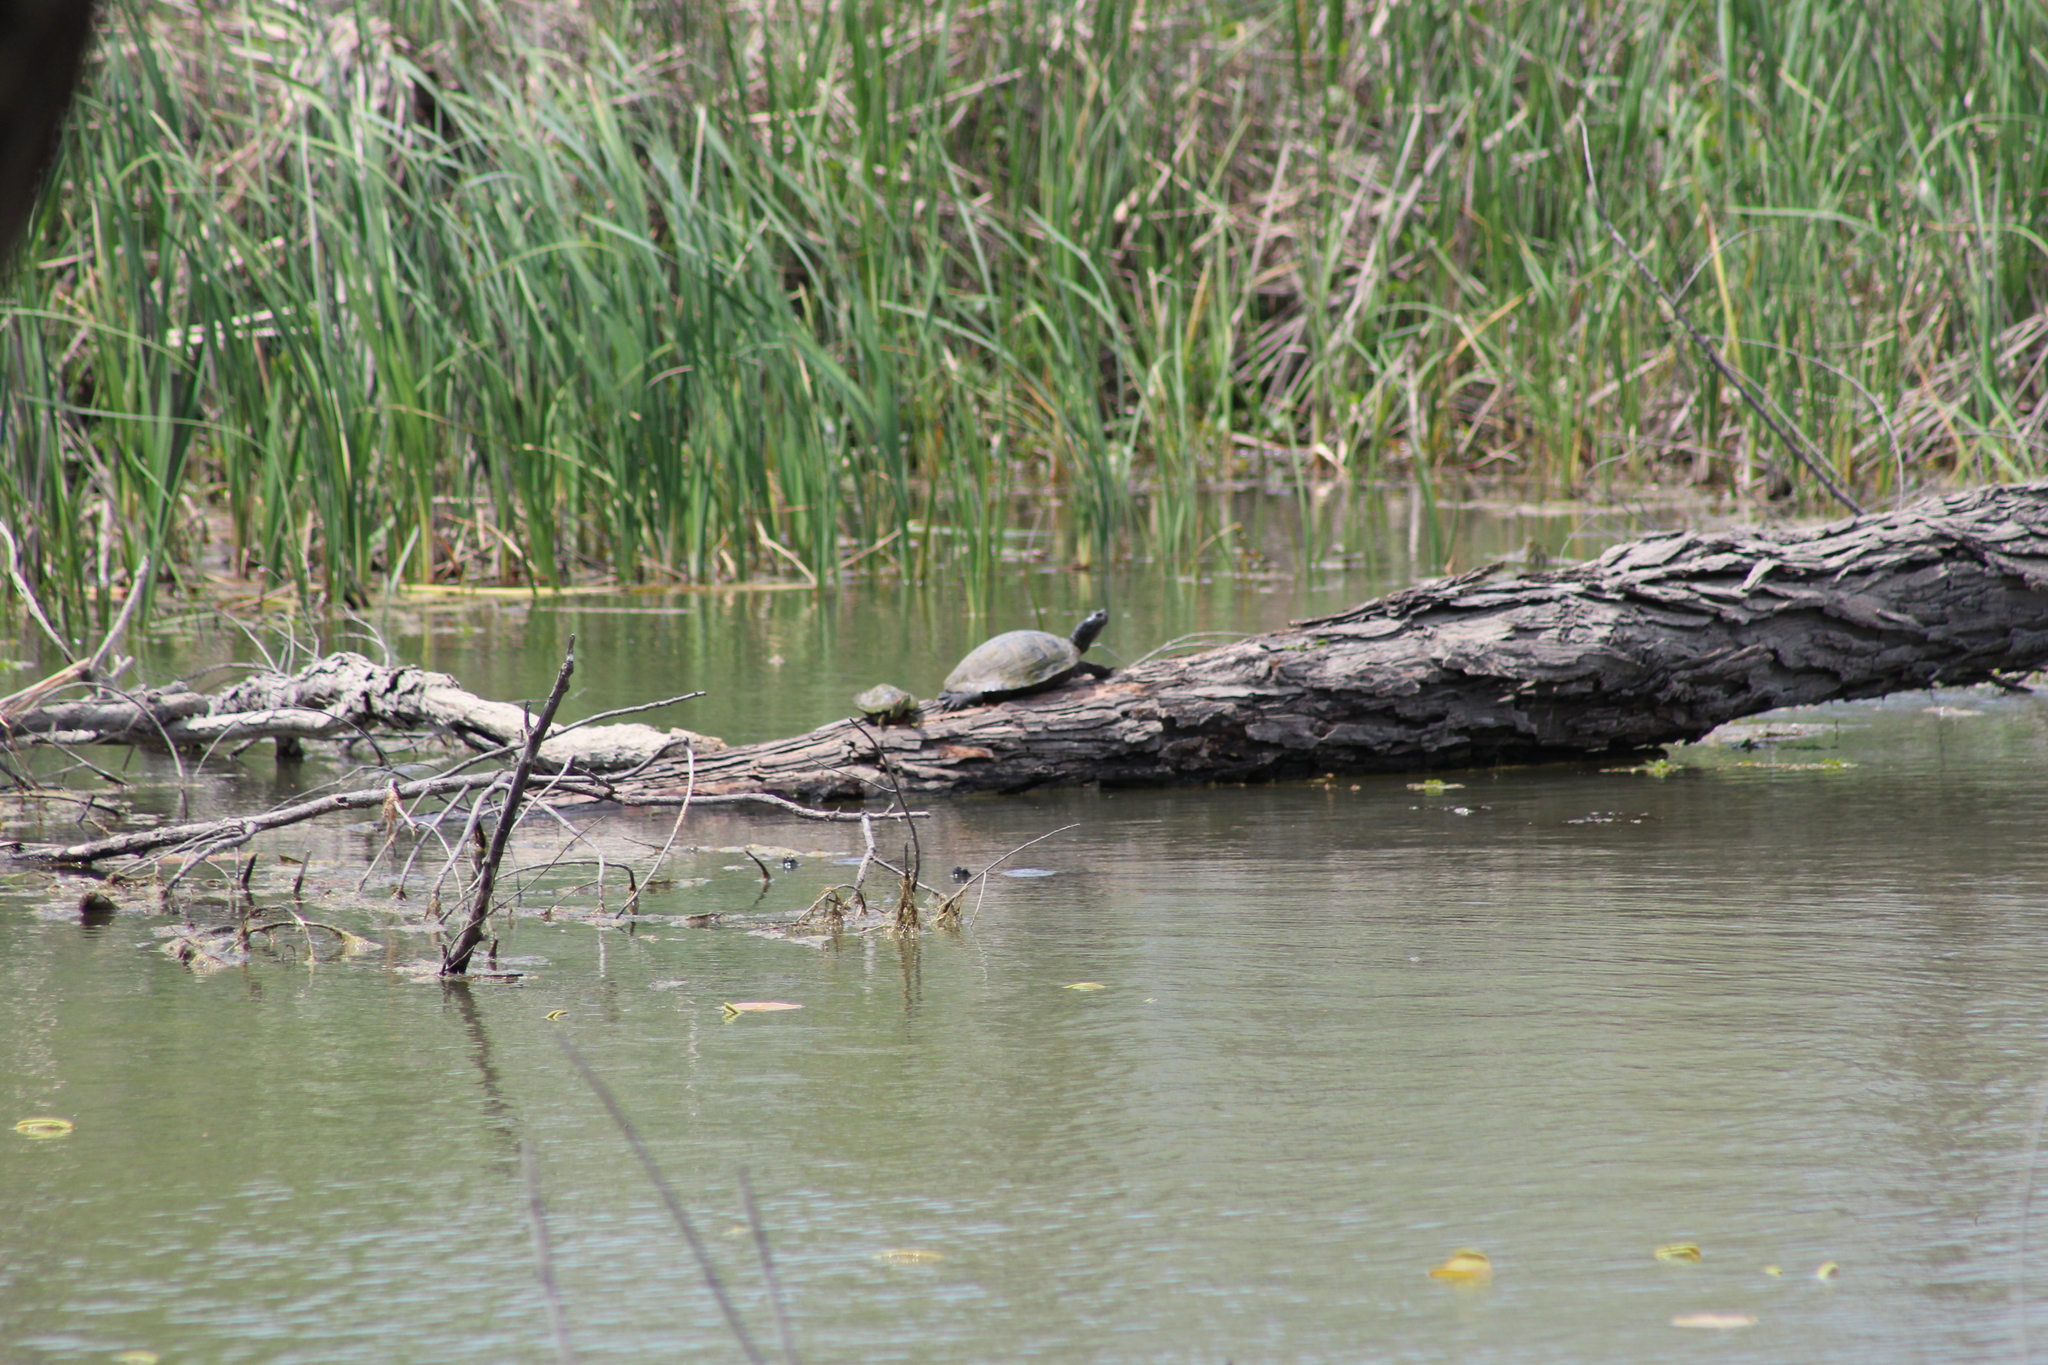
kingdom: Animalia
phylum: Chordata
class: Testudines
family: Emydidae
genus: Trachemys
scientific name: Trachemys scripta
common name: Slider
